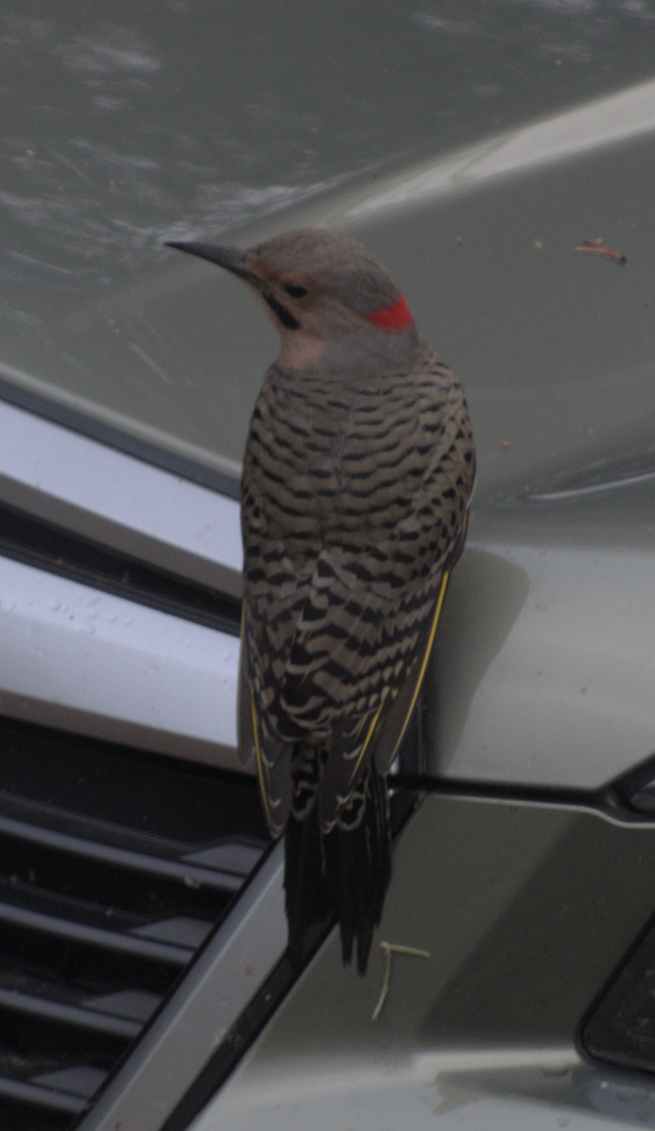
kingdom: Animalia
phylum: Chordata
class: Aves
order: Piciformes
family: Picidae
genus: Colaptes
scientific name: Colaptes auratus
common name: Northern flicker
